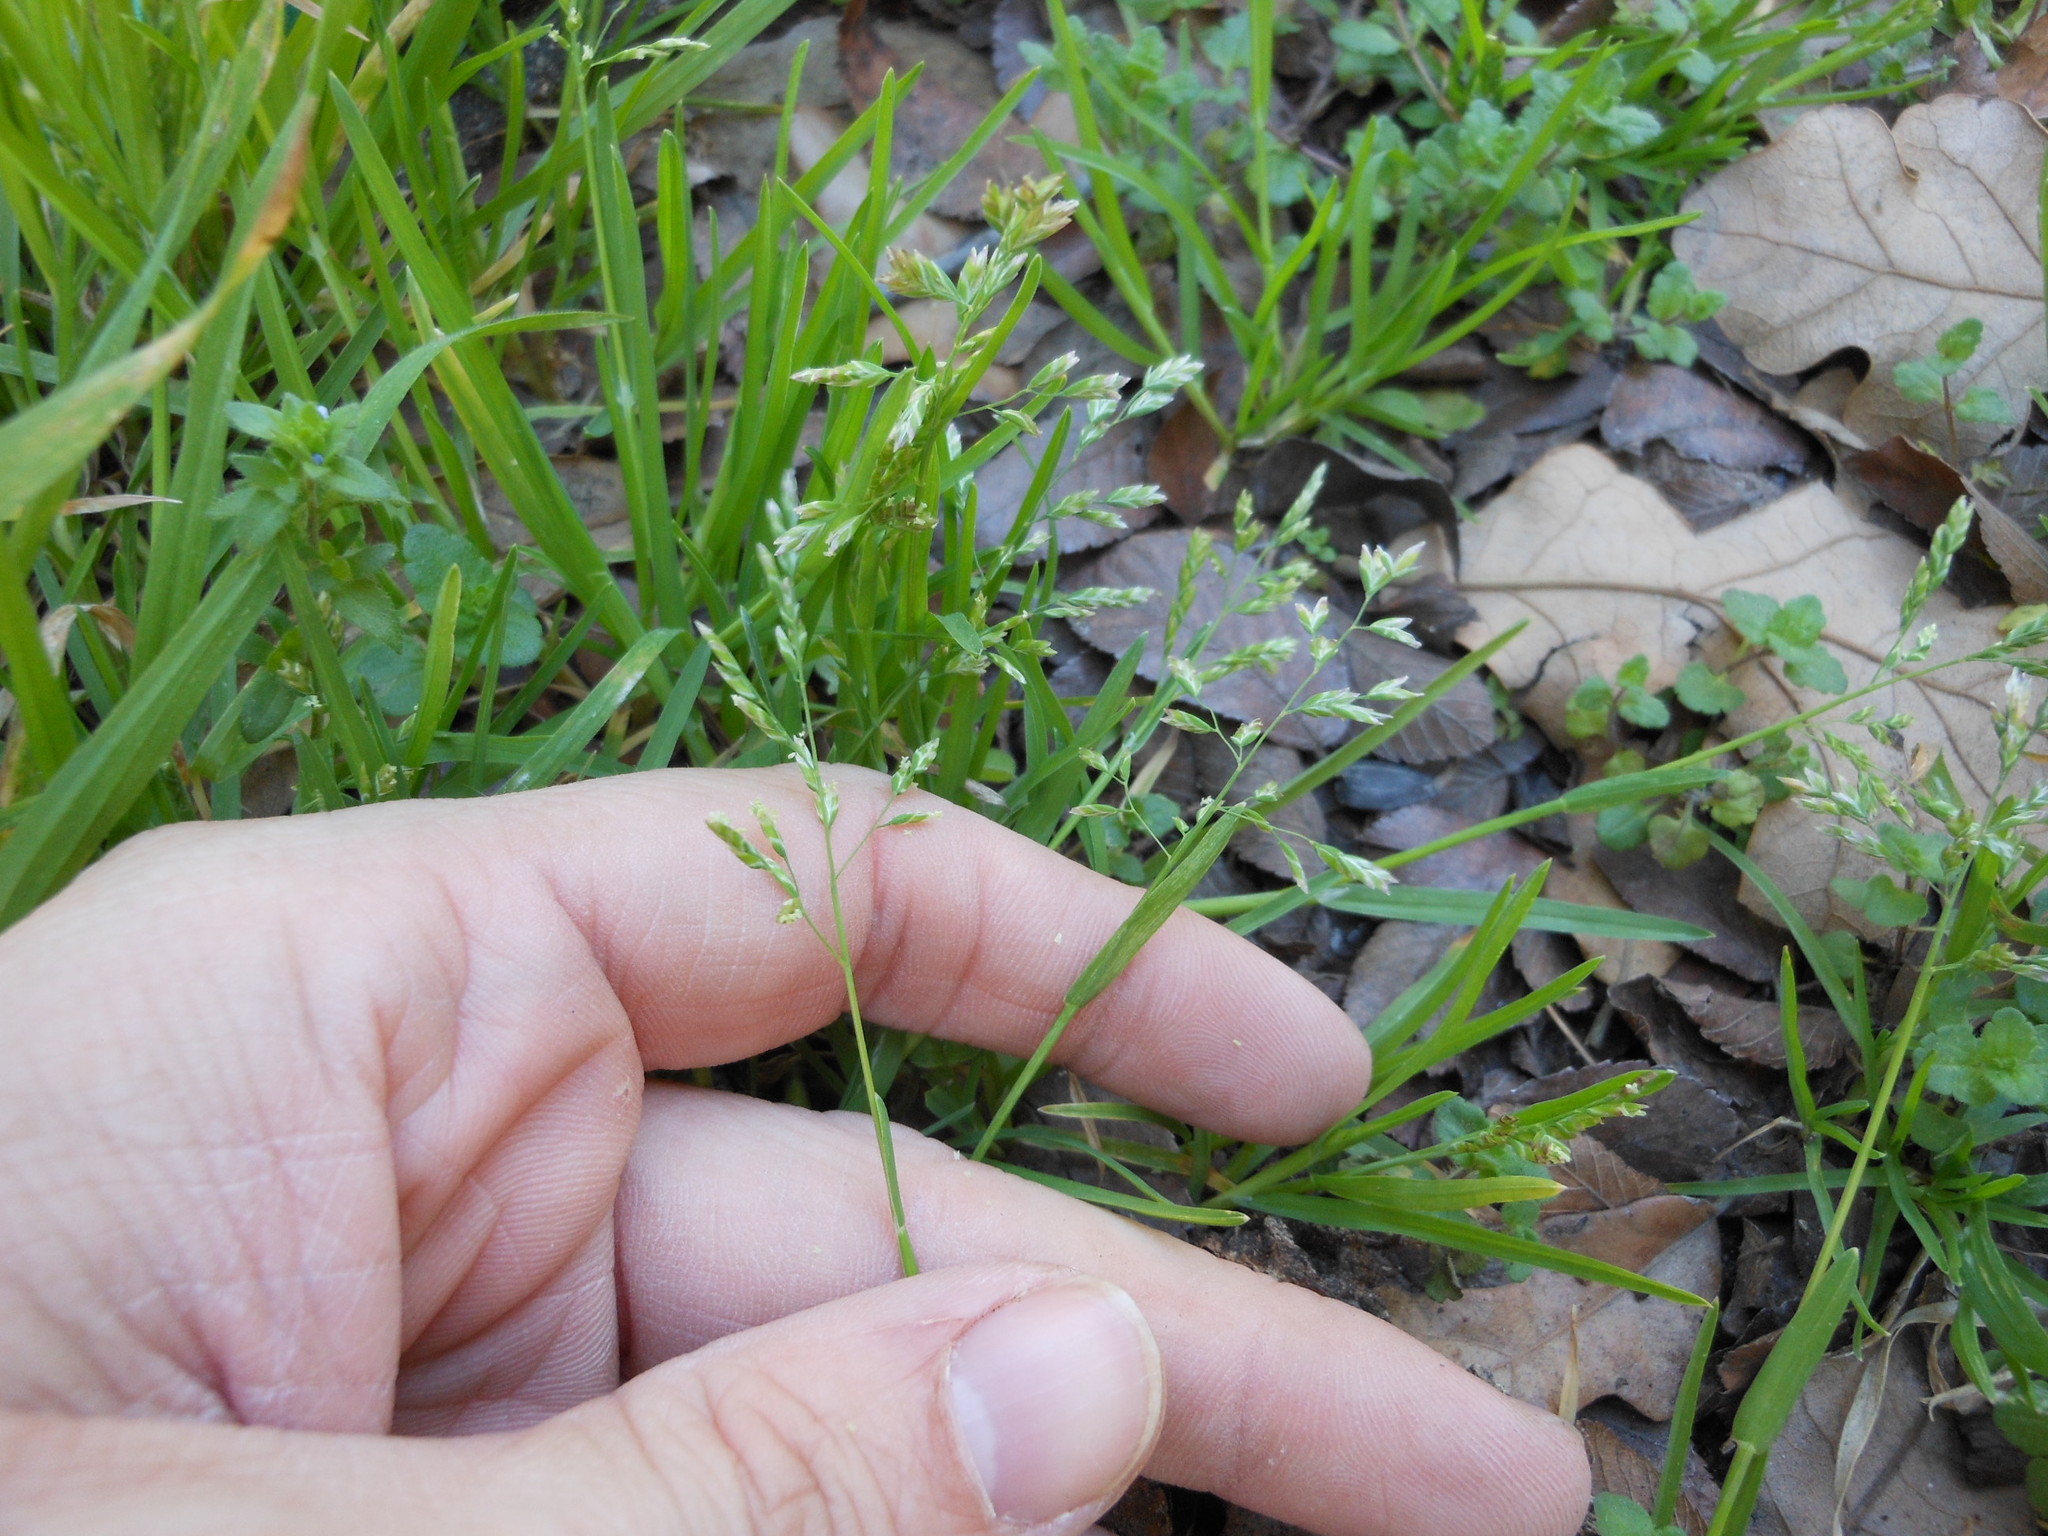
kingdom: Plantae
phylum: Tracheophyta
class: Liliopsida
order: Poales
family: Poaceae
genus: Poa
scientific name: Poa annua
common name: Annual bluegrass
